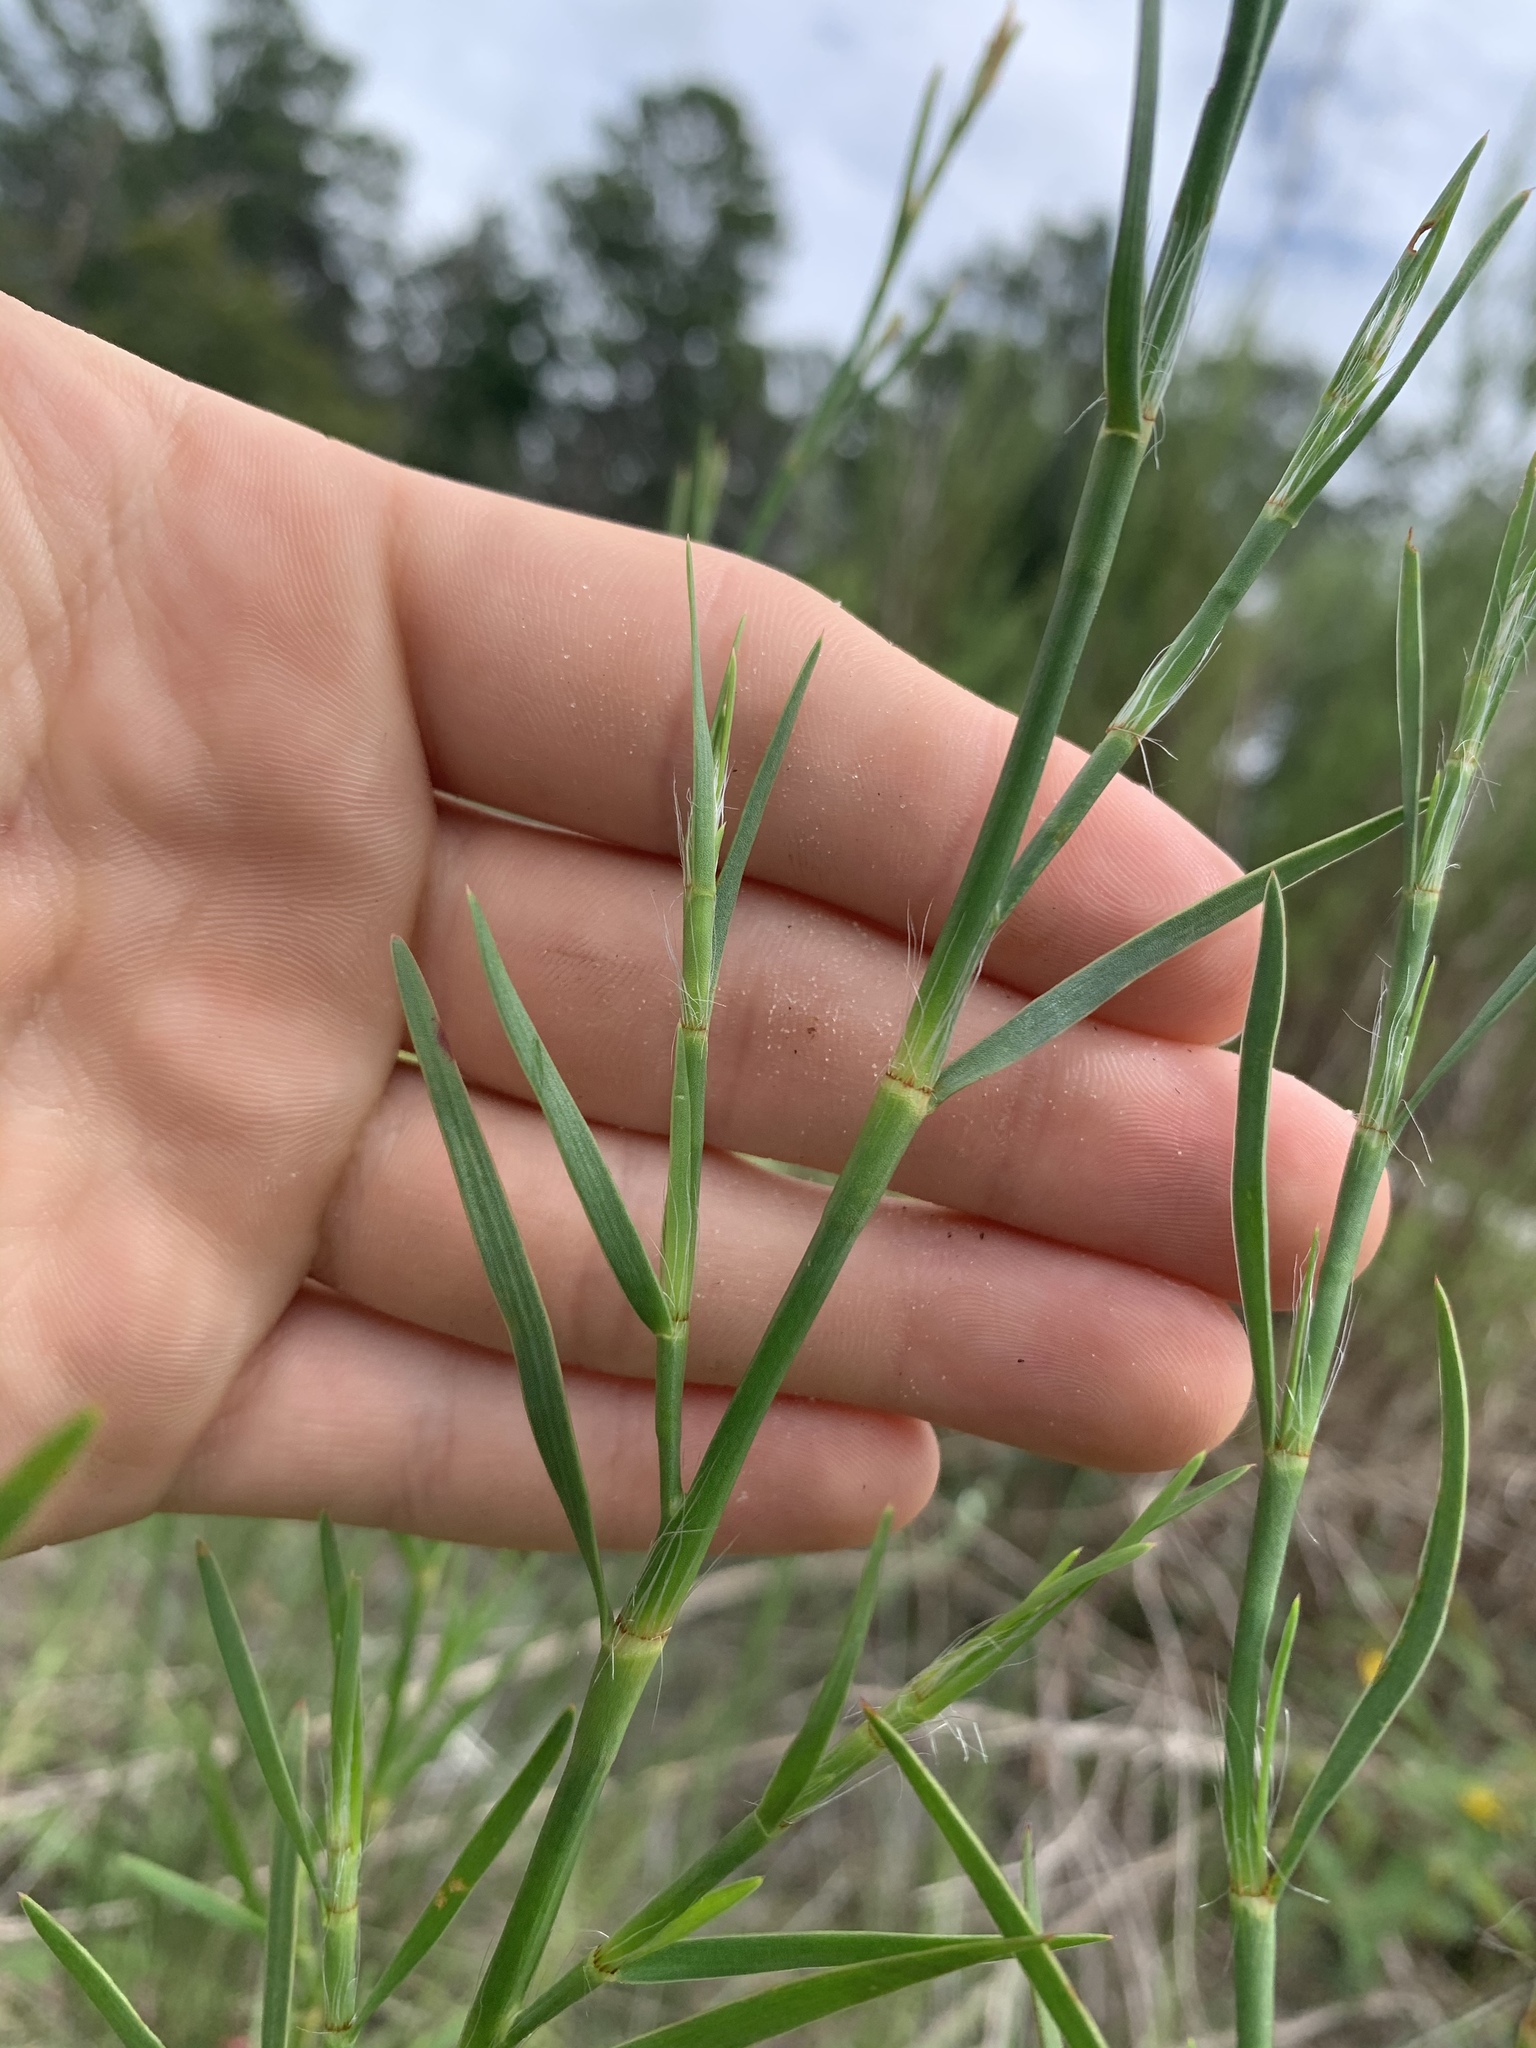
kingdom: Plantae
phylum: Tracheophyta
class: Magnoliopsida
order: Caryophyllales
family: Polygonaceae
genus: Polygonella
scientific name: Polygonella robusta
